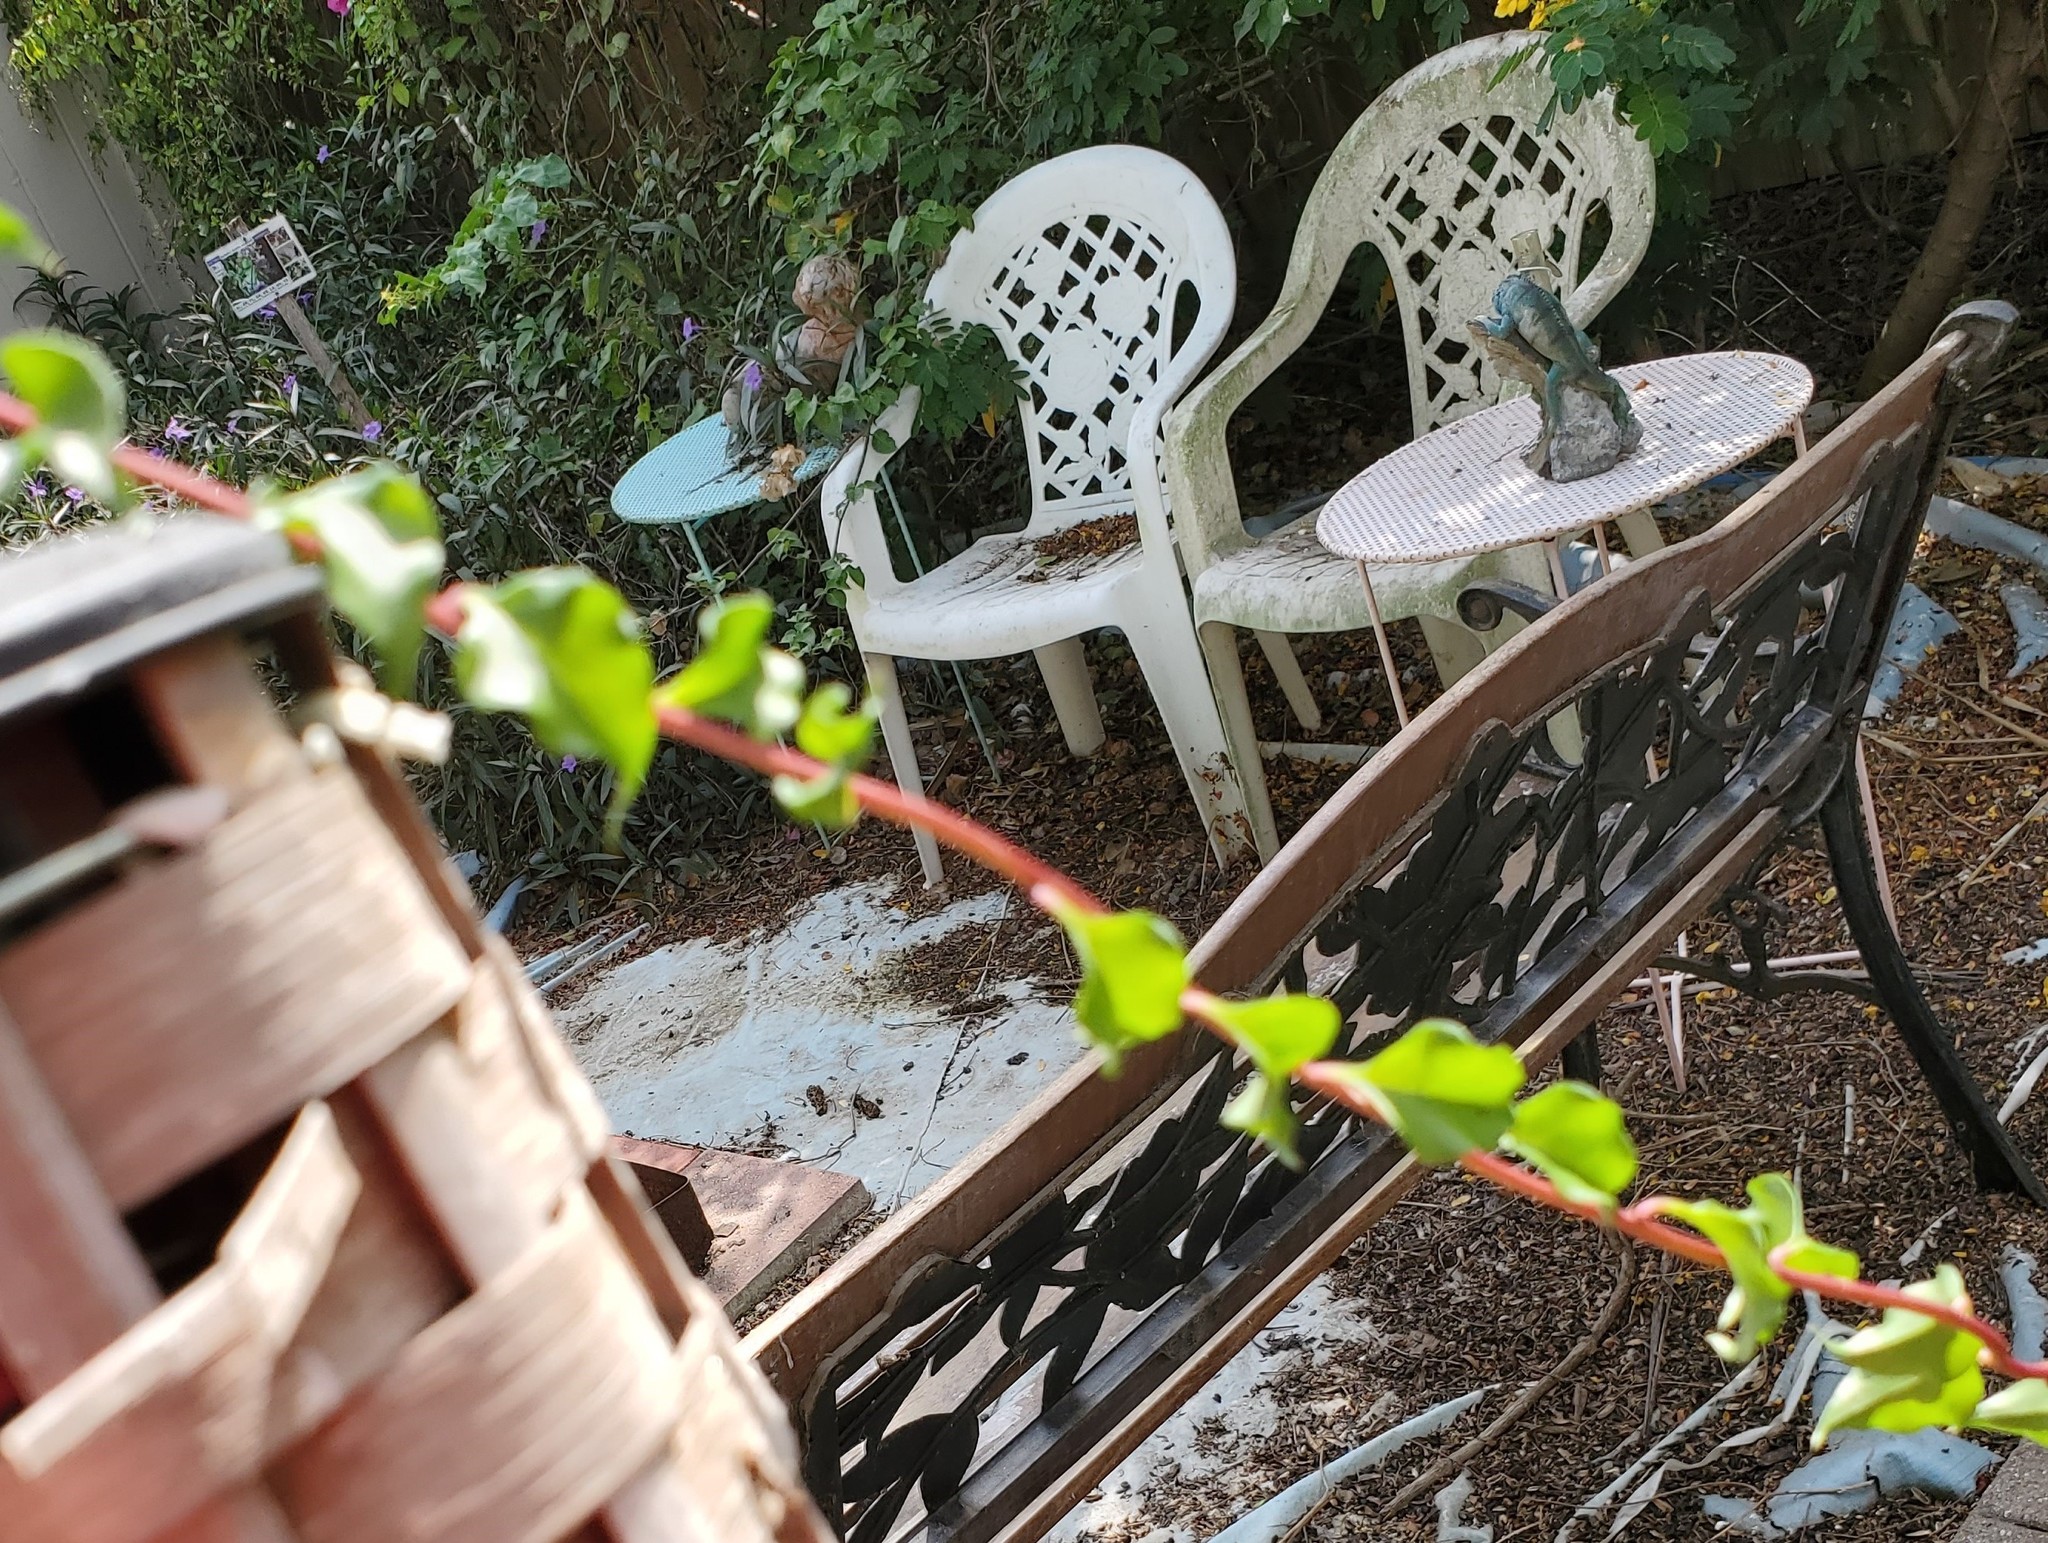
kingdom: Plantae
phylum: Tracheophyta
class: Magnoliopsida
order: Caryophyllales
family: Basellaceae
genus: Anredera
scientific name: Anredera vesicaria
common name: Sacasile
